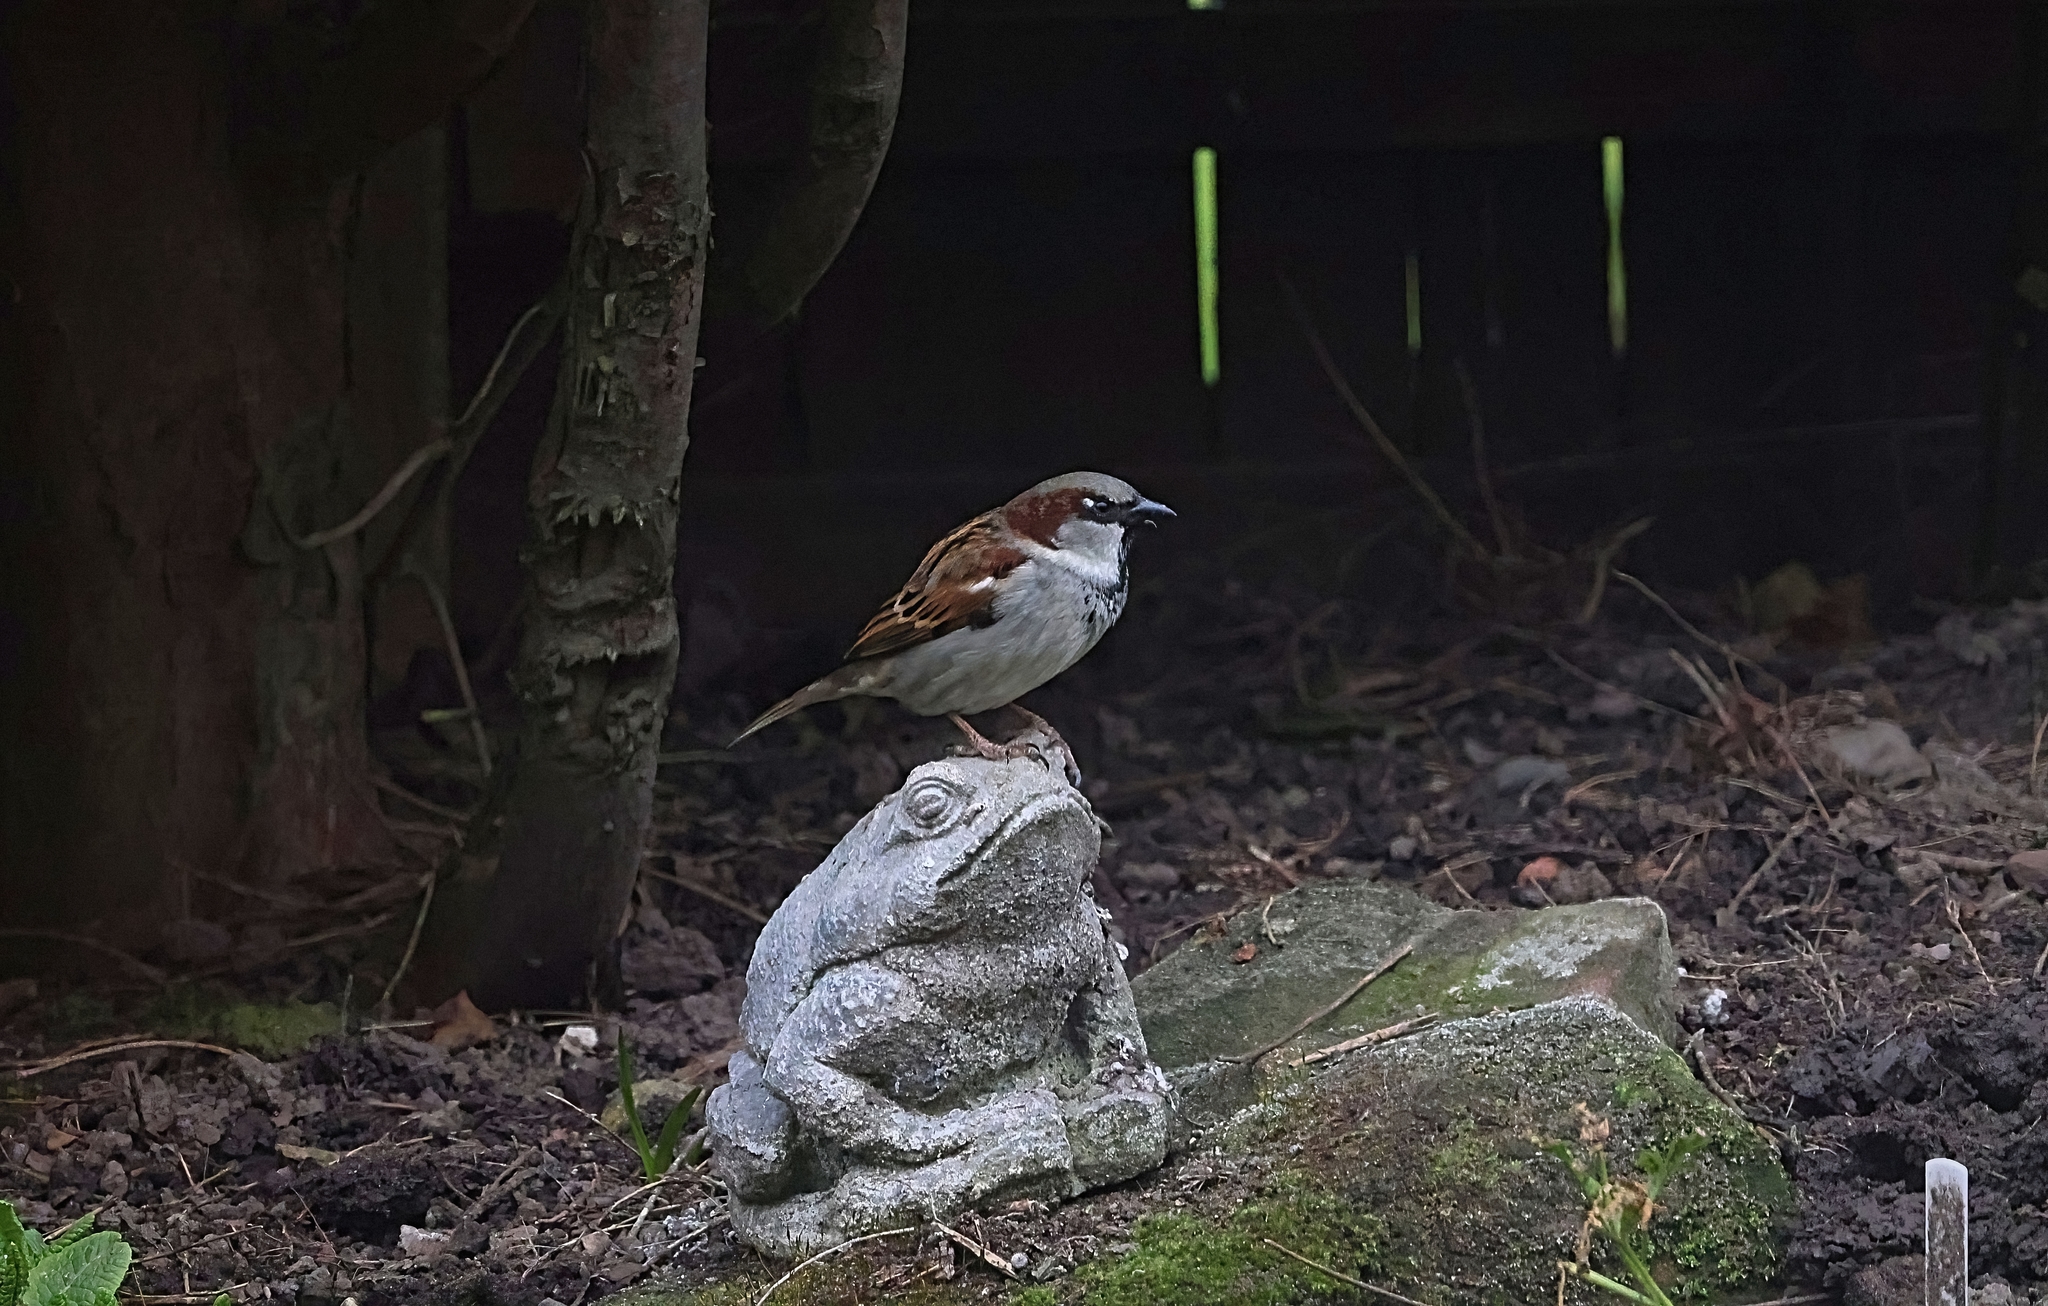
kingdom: Animalia
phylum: Chordata
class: Aves
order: Passeriformes
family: Passeridae
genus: Passer
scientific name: Passer domesticus
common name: House sparrow
